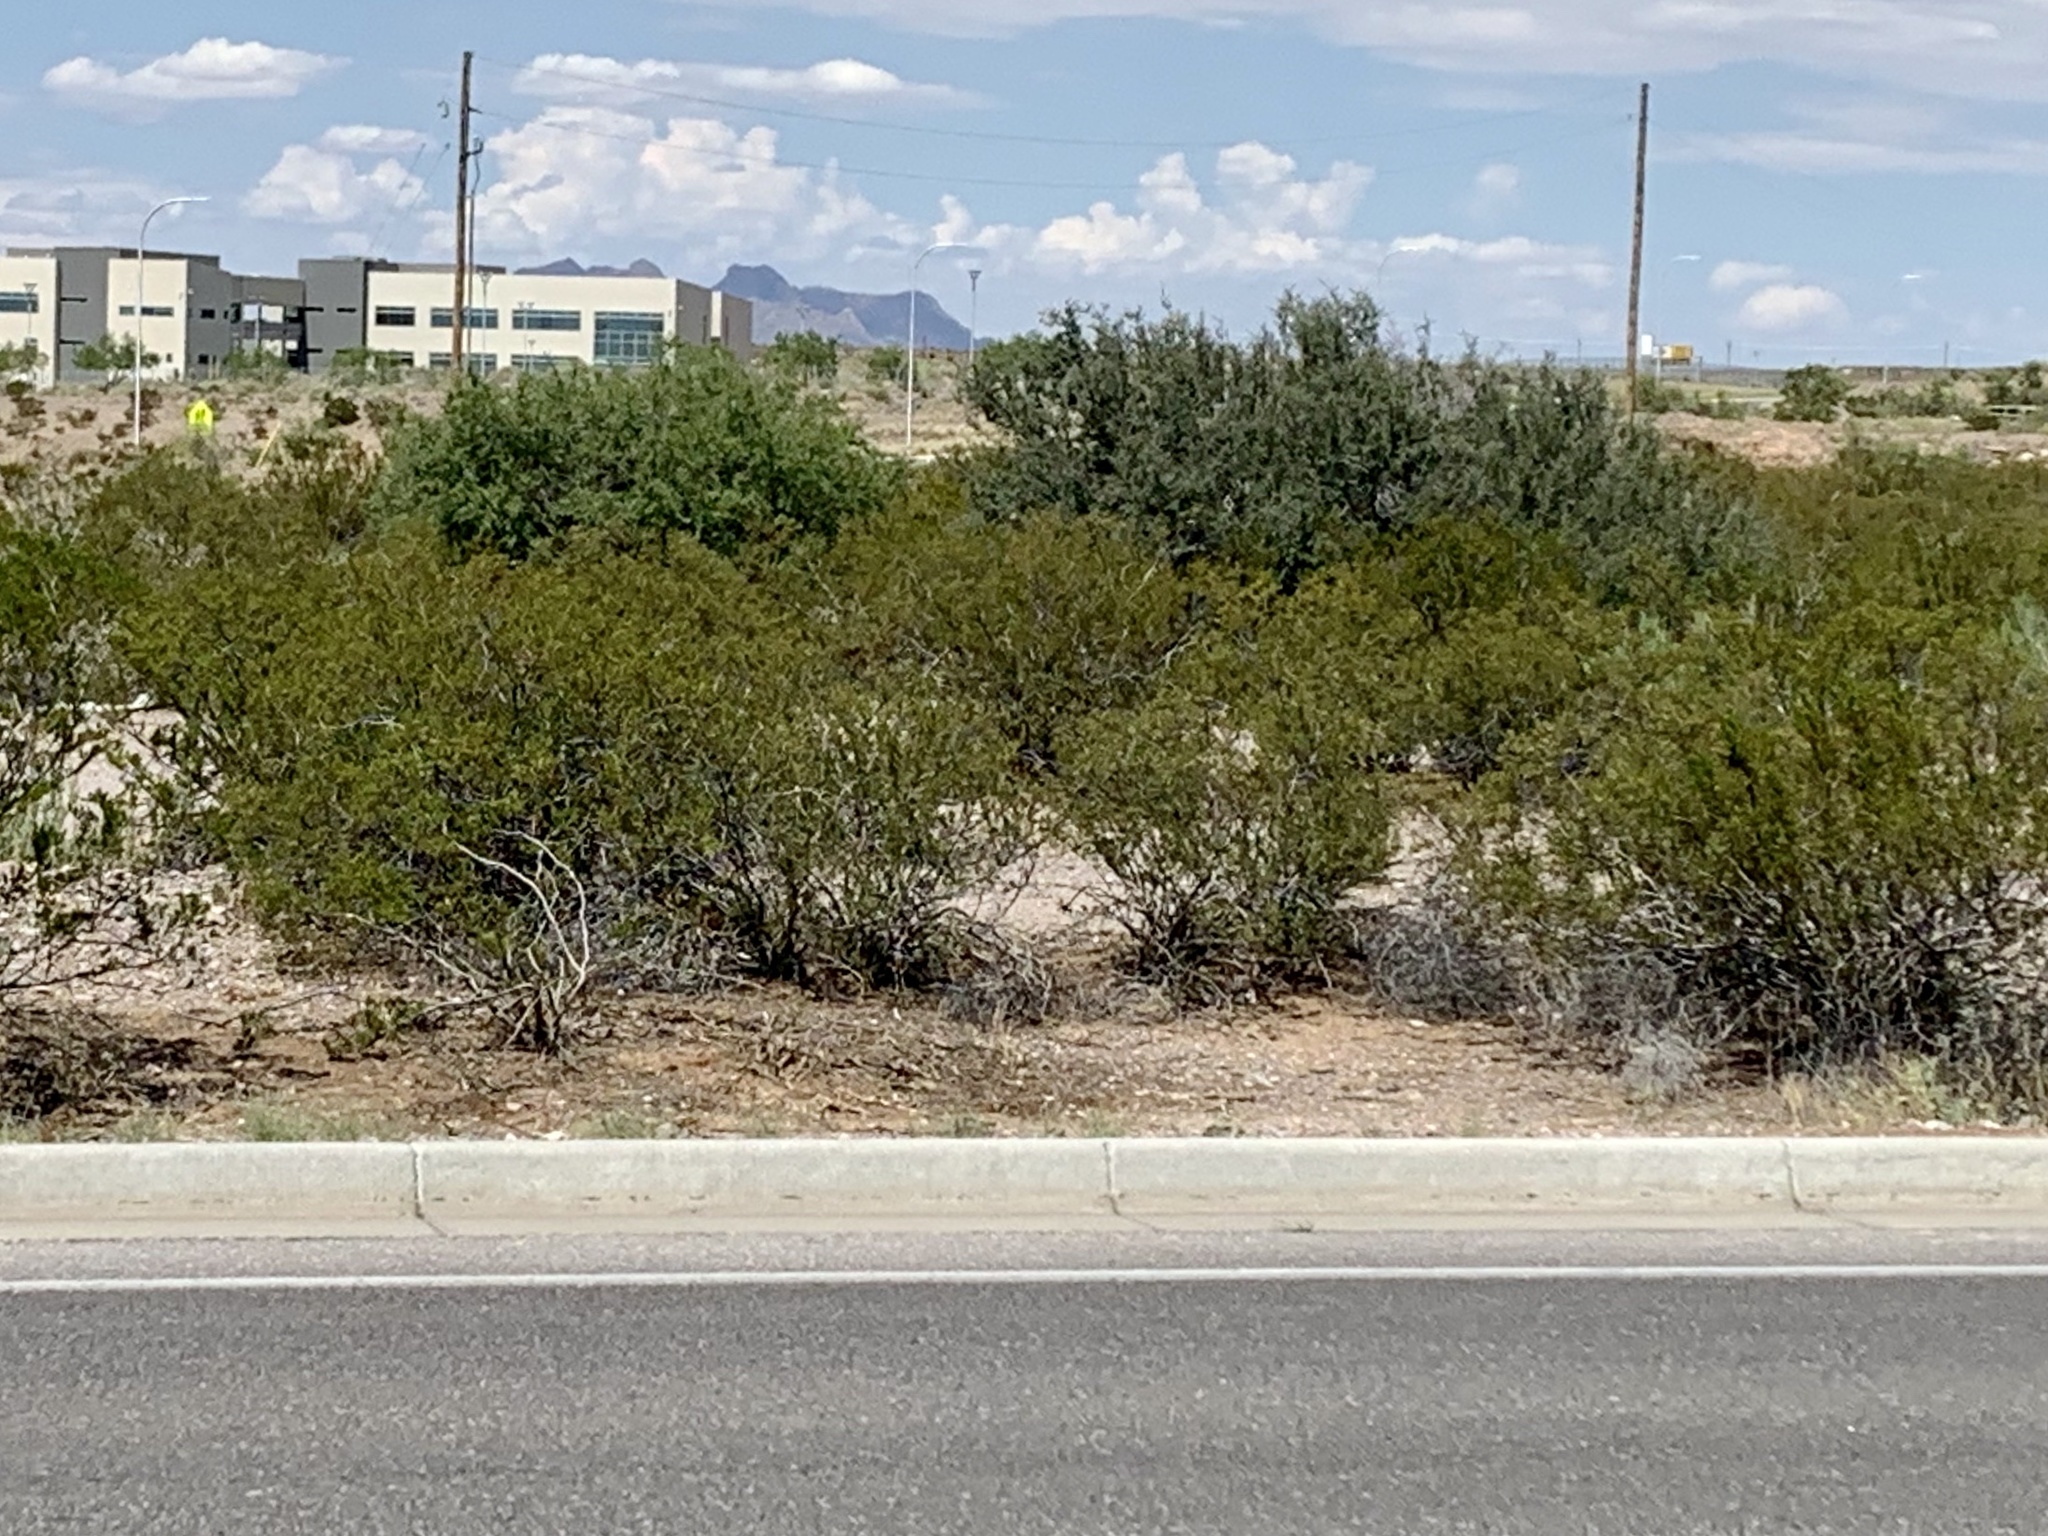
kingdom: Plantae
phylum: Tracheophyta
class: Magnoliopsida
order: Zygophyllales
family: Zygophyllaceae
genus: Larrea
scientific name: Larrea tridentata
